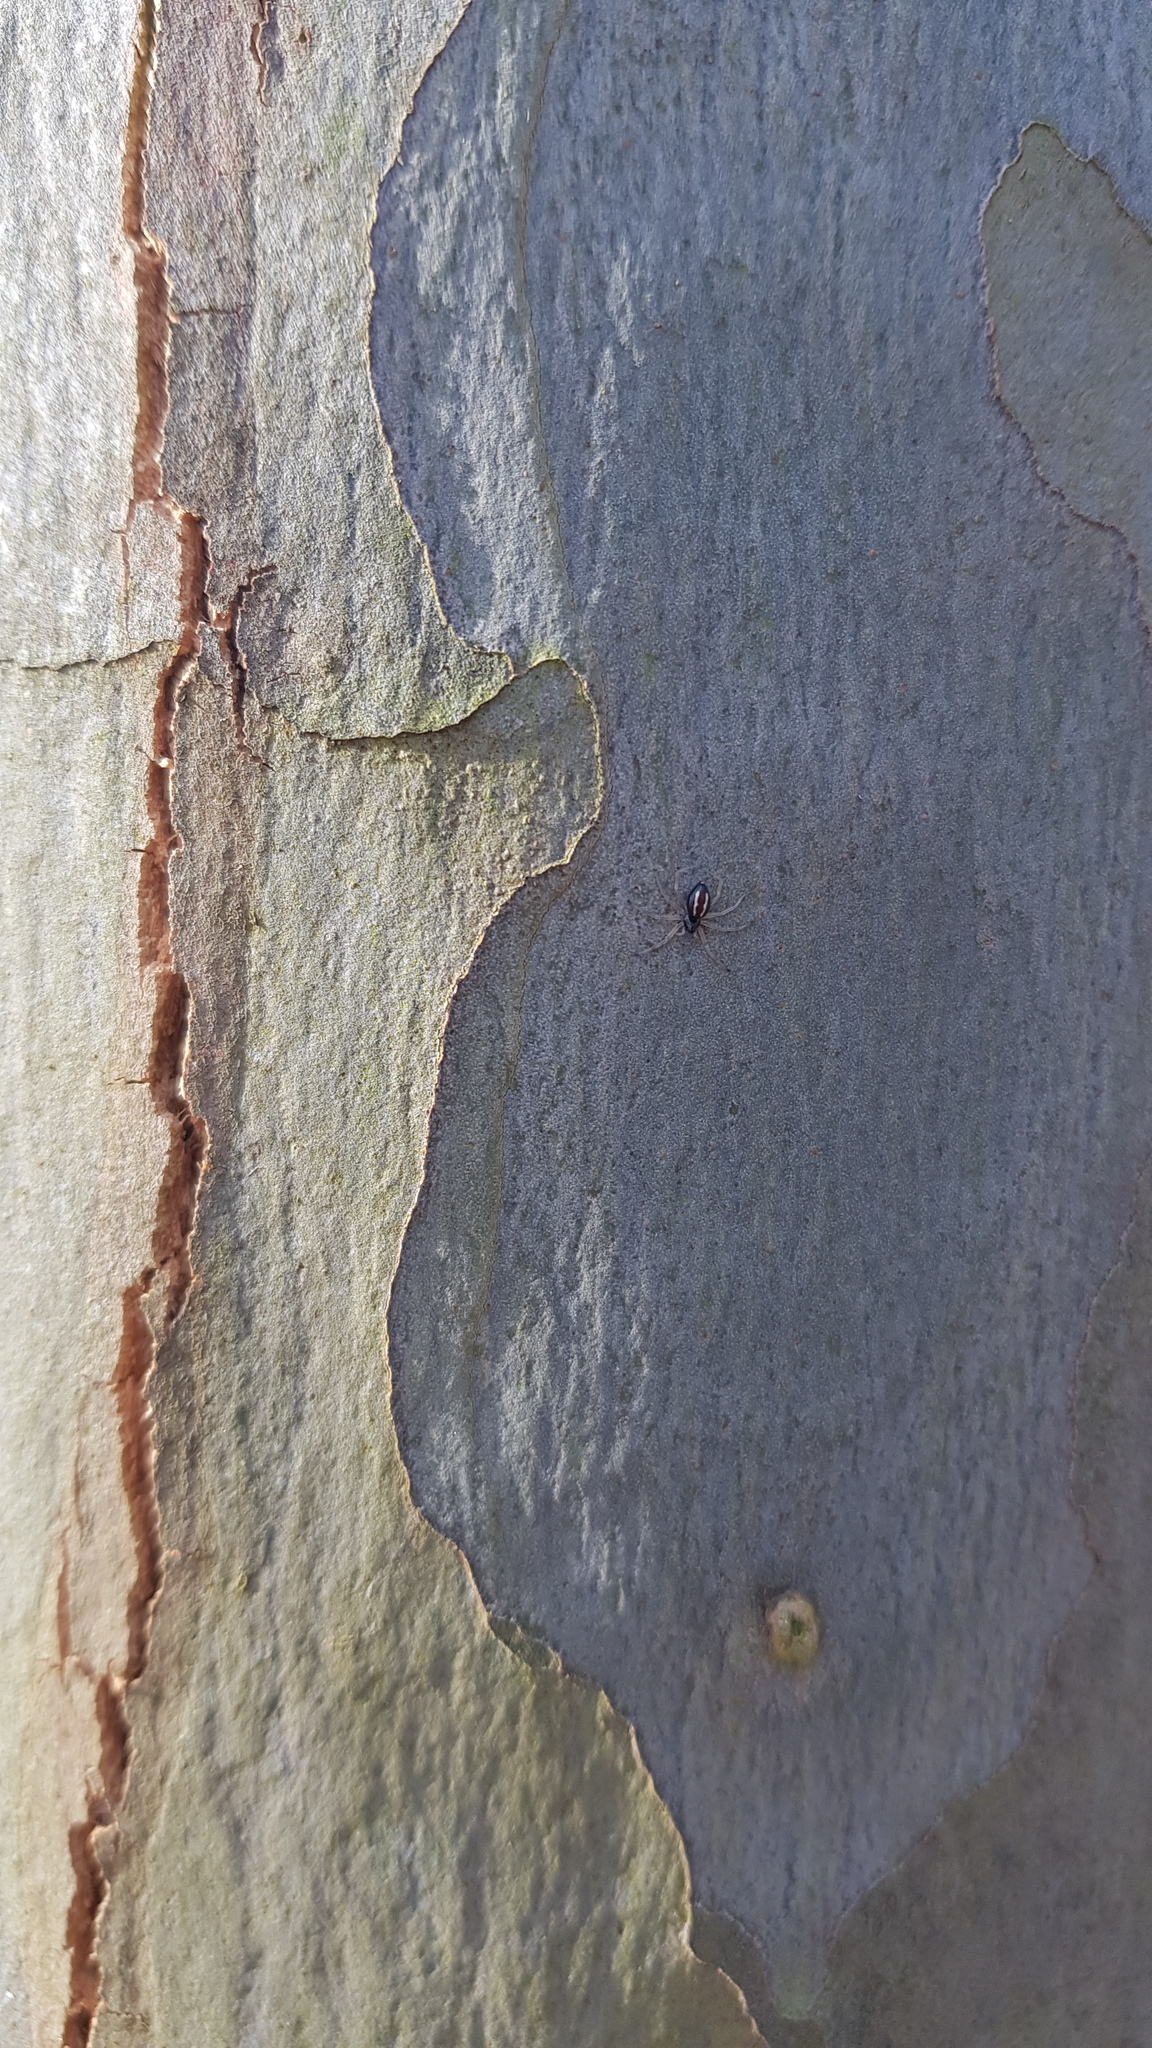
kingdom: Animalia
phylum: Arthropoda
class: Arachnida
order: Araneae
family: Theridiidae
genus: Euryopis
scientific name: Euryopis umbilicata
